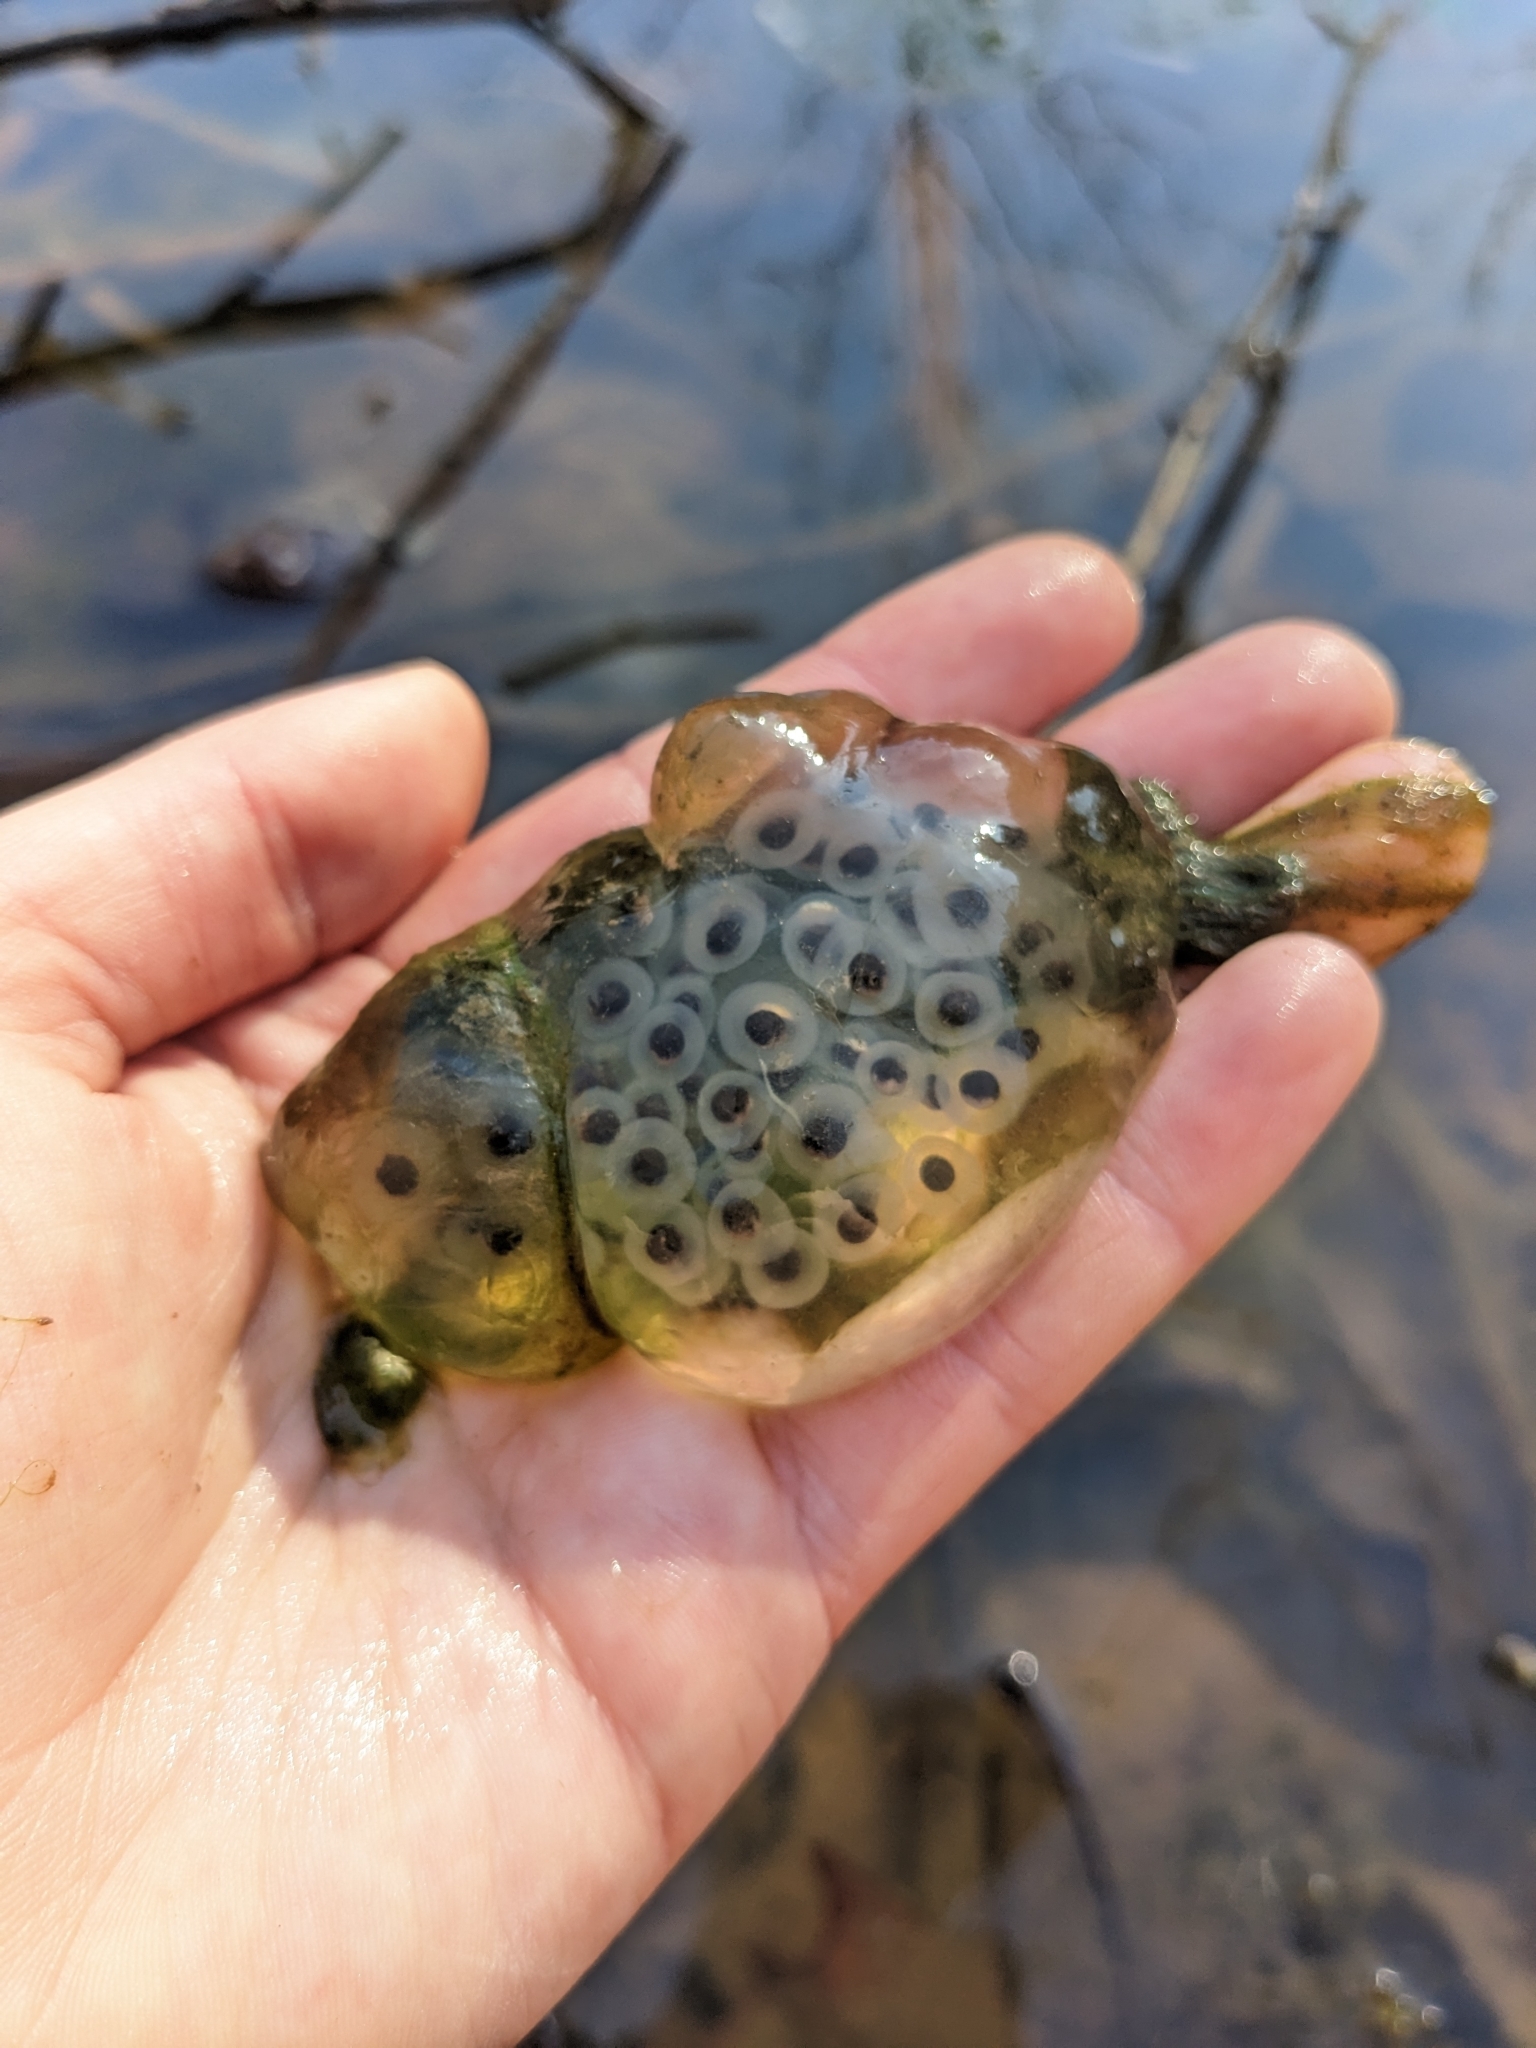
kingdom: Animalia
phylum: Chordata
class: Amphibia
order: Caudata
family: Ambystomatidae
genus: Ambystoma
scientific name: Ambystoma maculatum
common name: Spotted salamander
